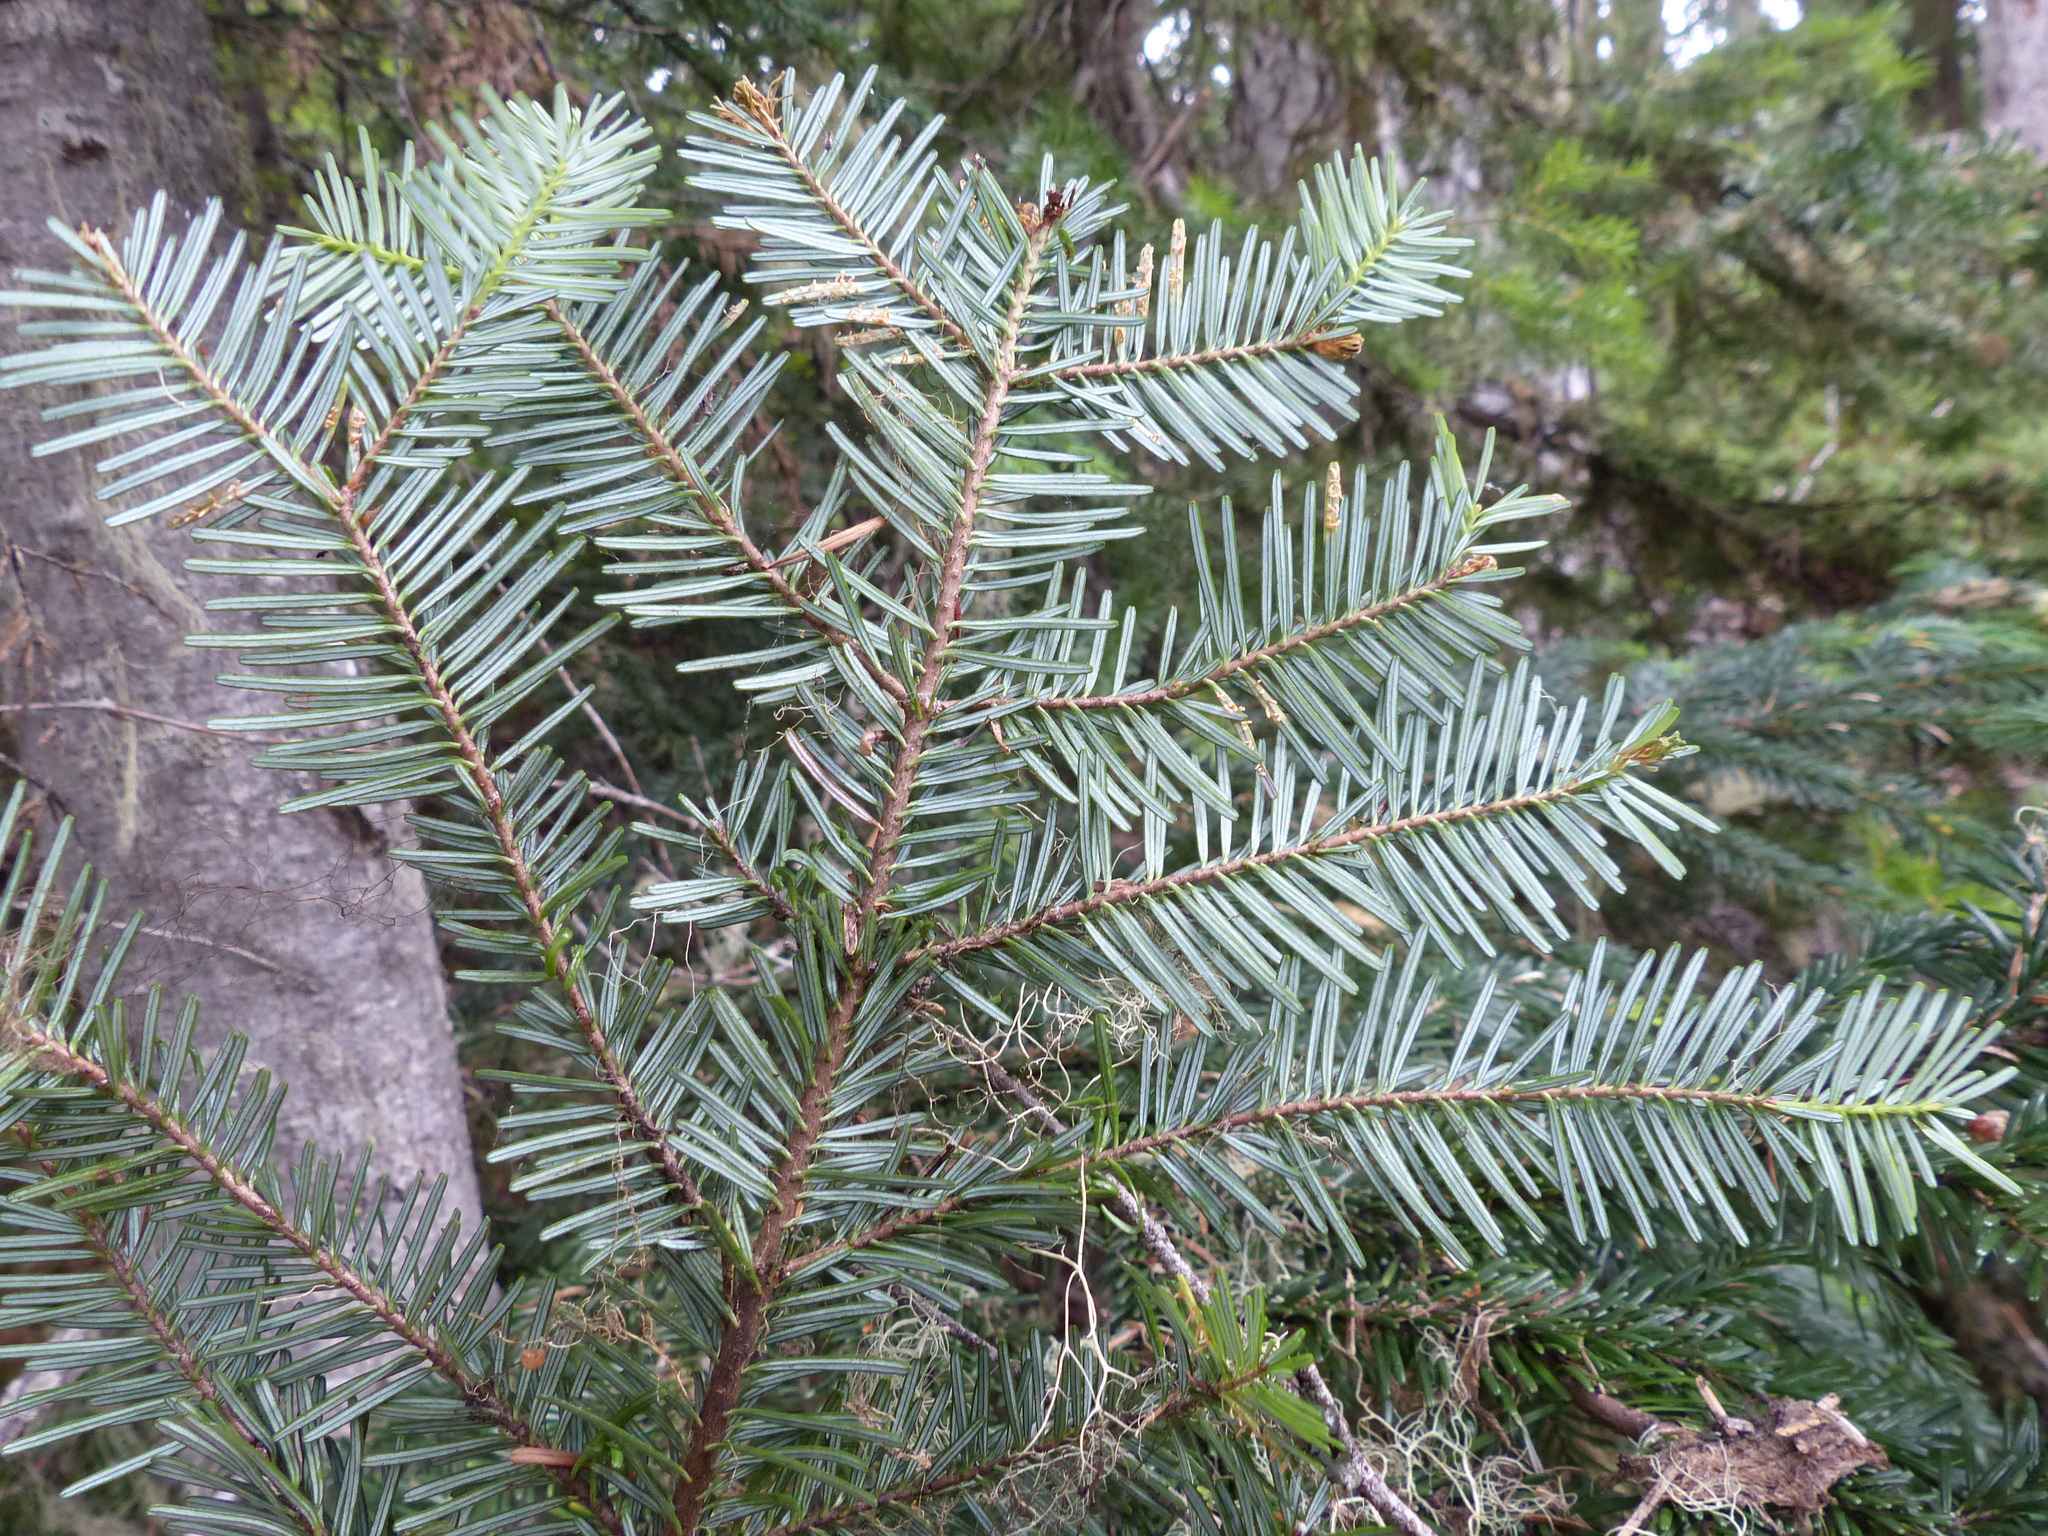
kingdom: Plantae
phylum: Tracheophyta
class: Pinopsida
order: Pinales
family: Pinaceae
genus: Abies
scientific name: Abies amabilis
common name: Pacific silver fir
